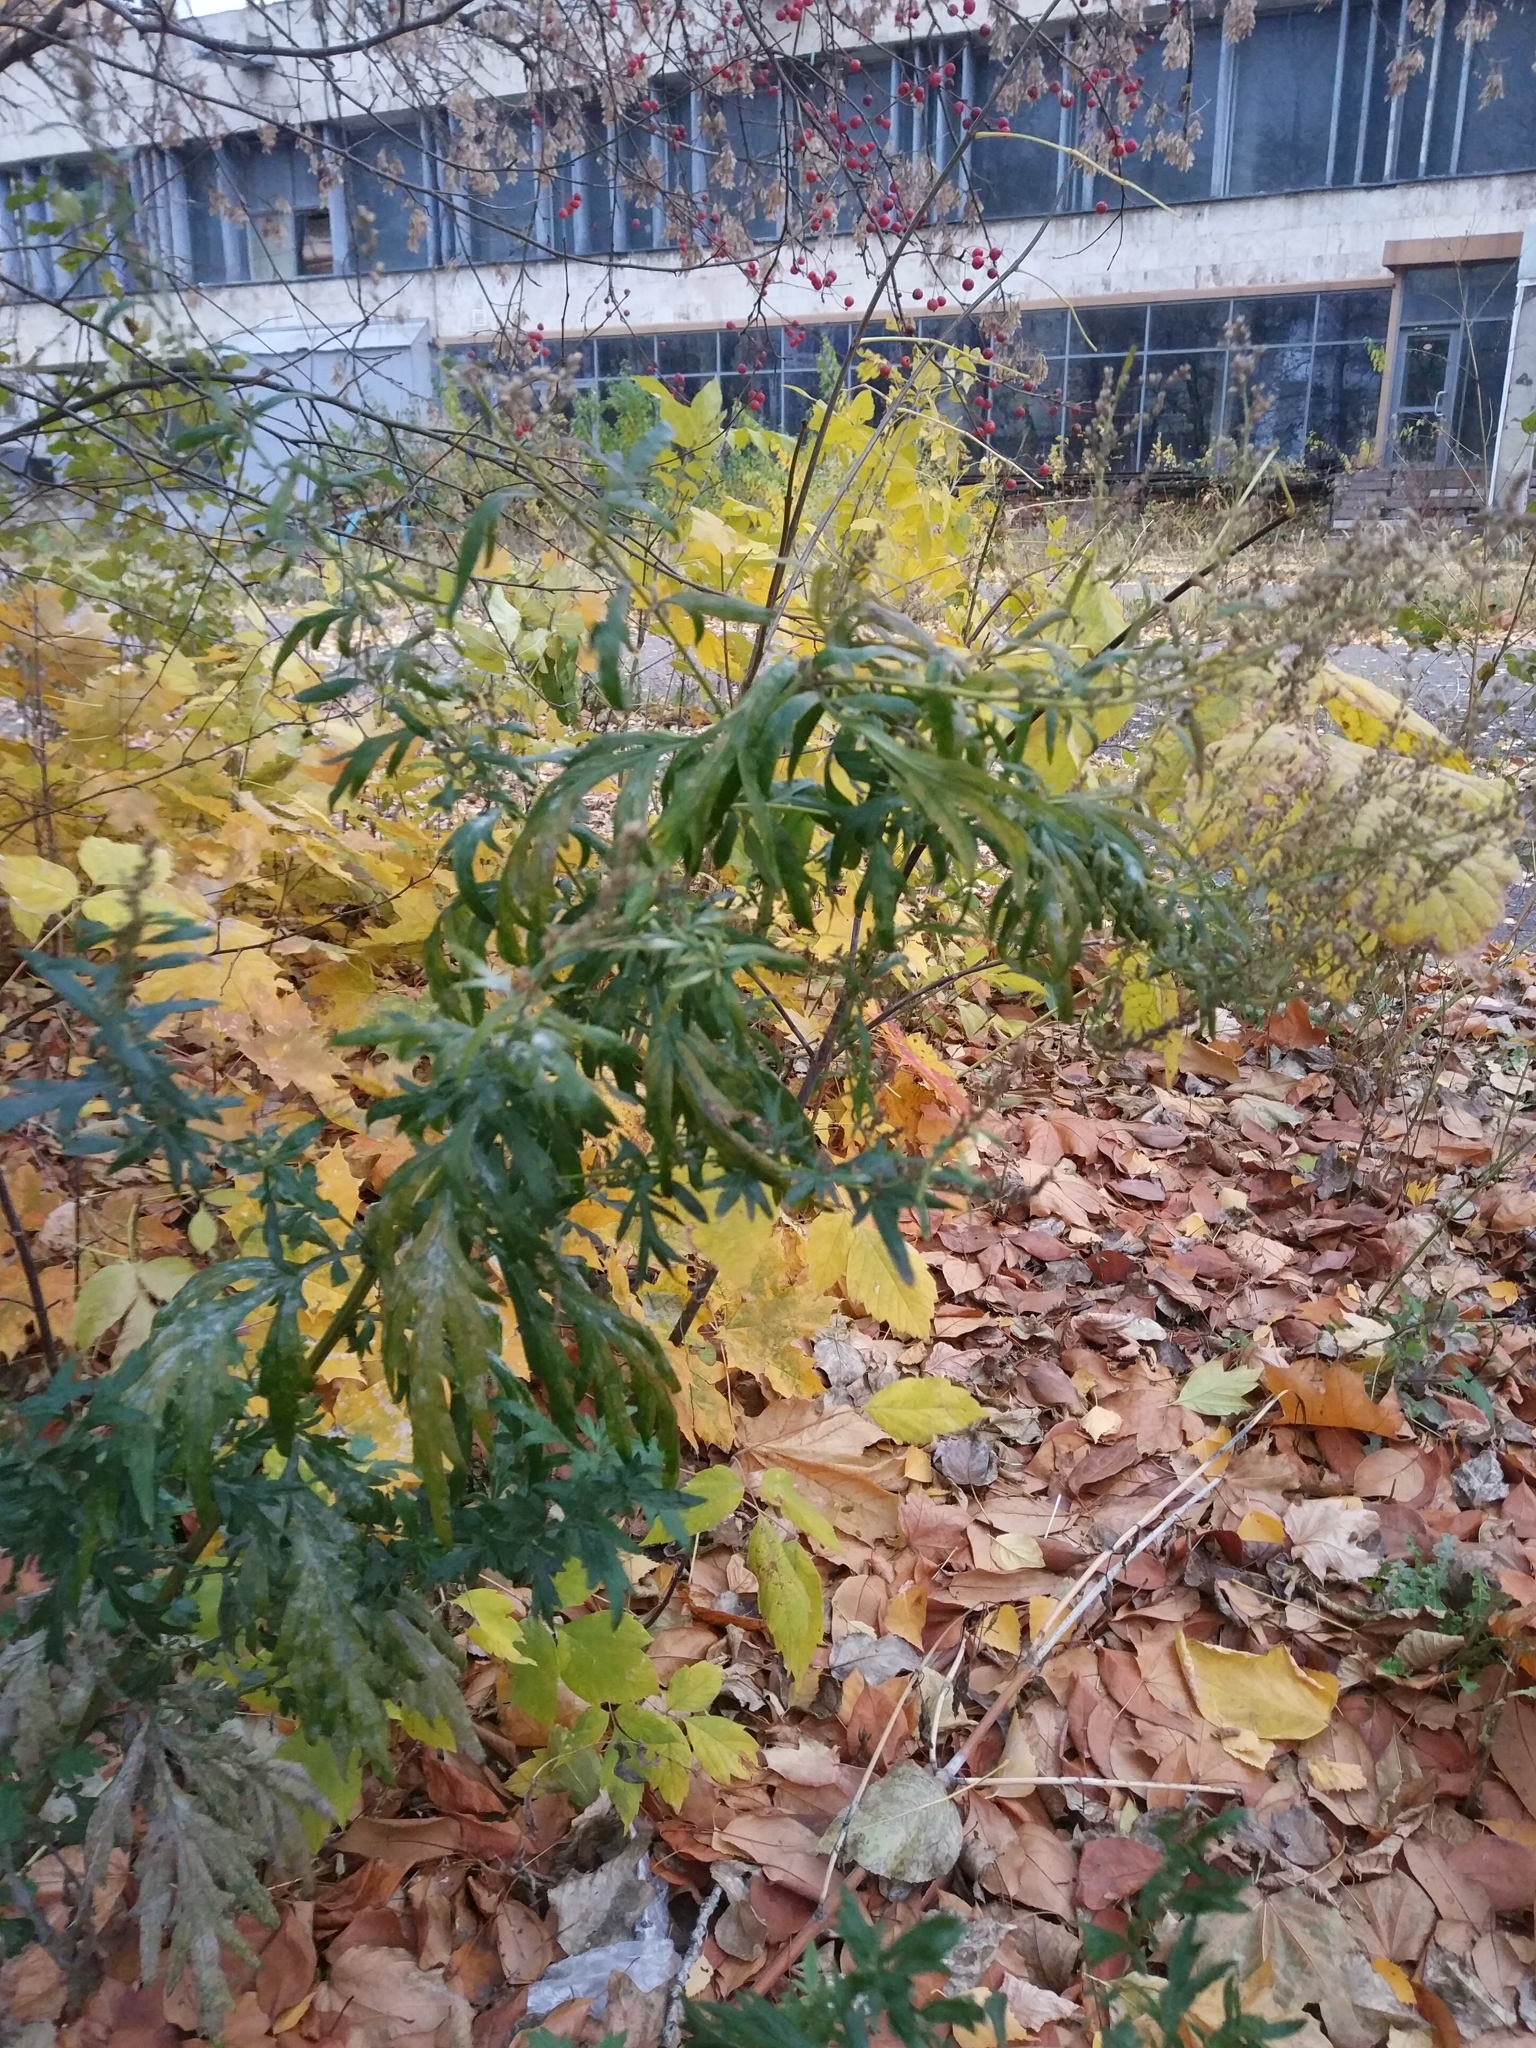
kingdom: Plantae
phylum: Tracheophyta
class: Magnoliopsida
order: Asterales
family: Asteraceae
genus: Artemisia
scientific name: Artemisia vulgaris
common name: Mugwort
